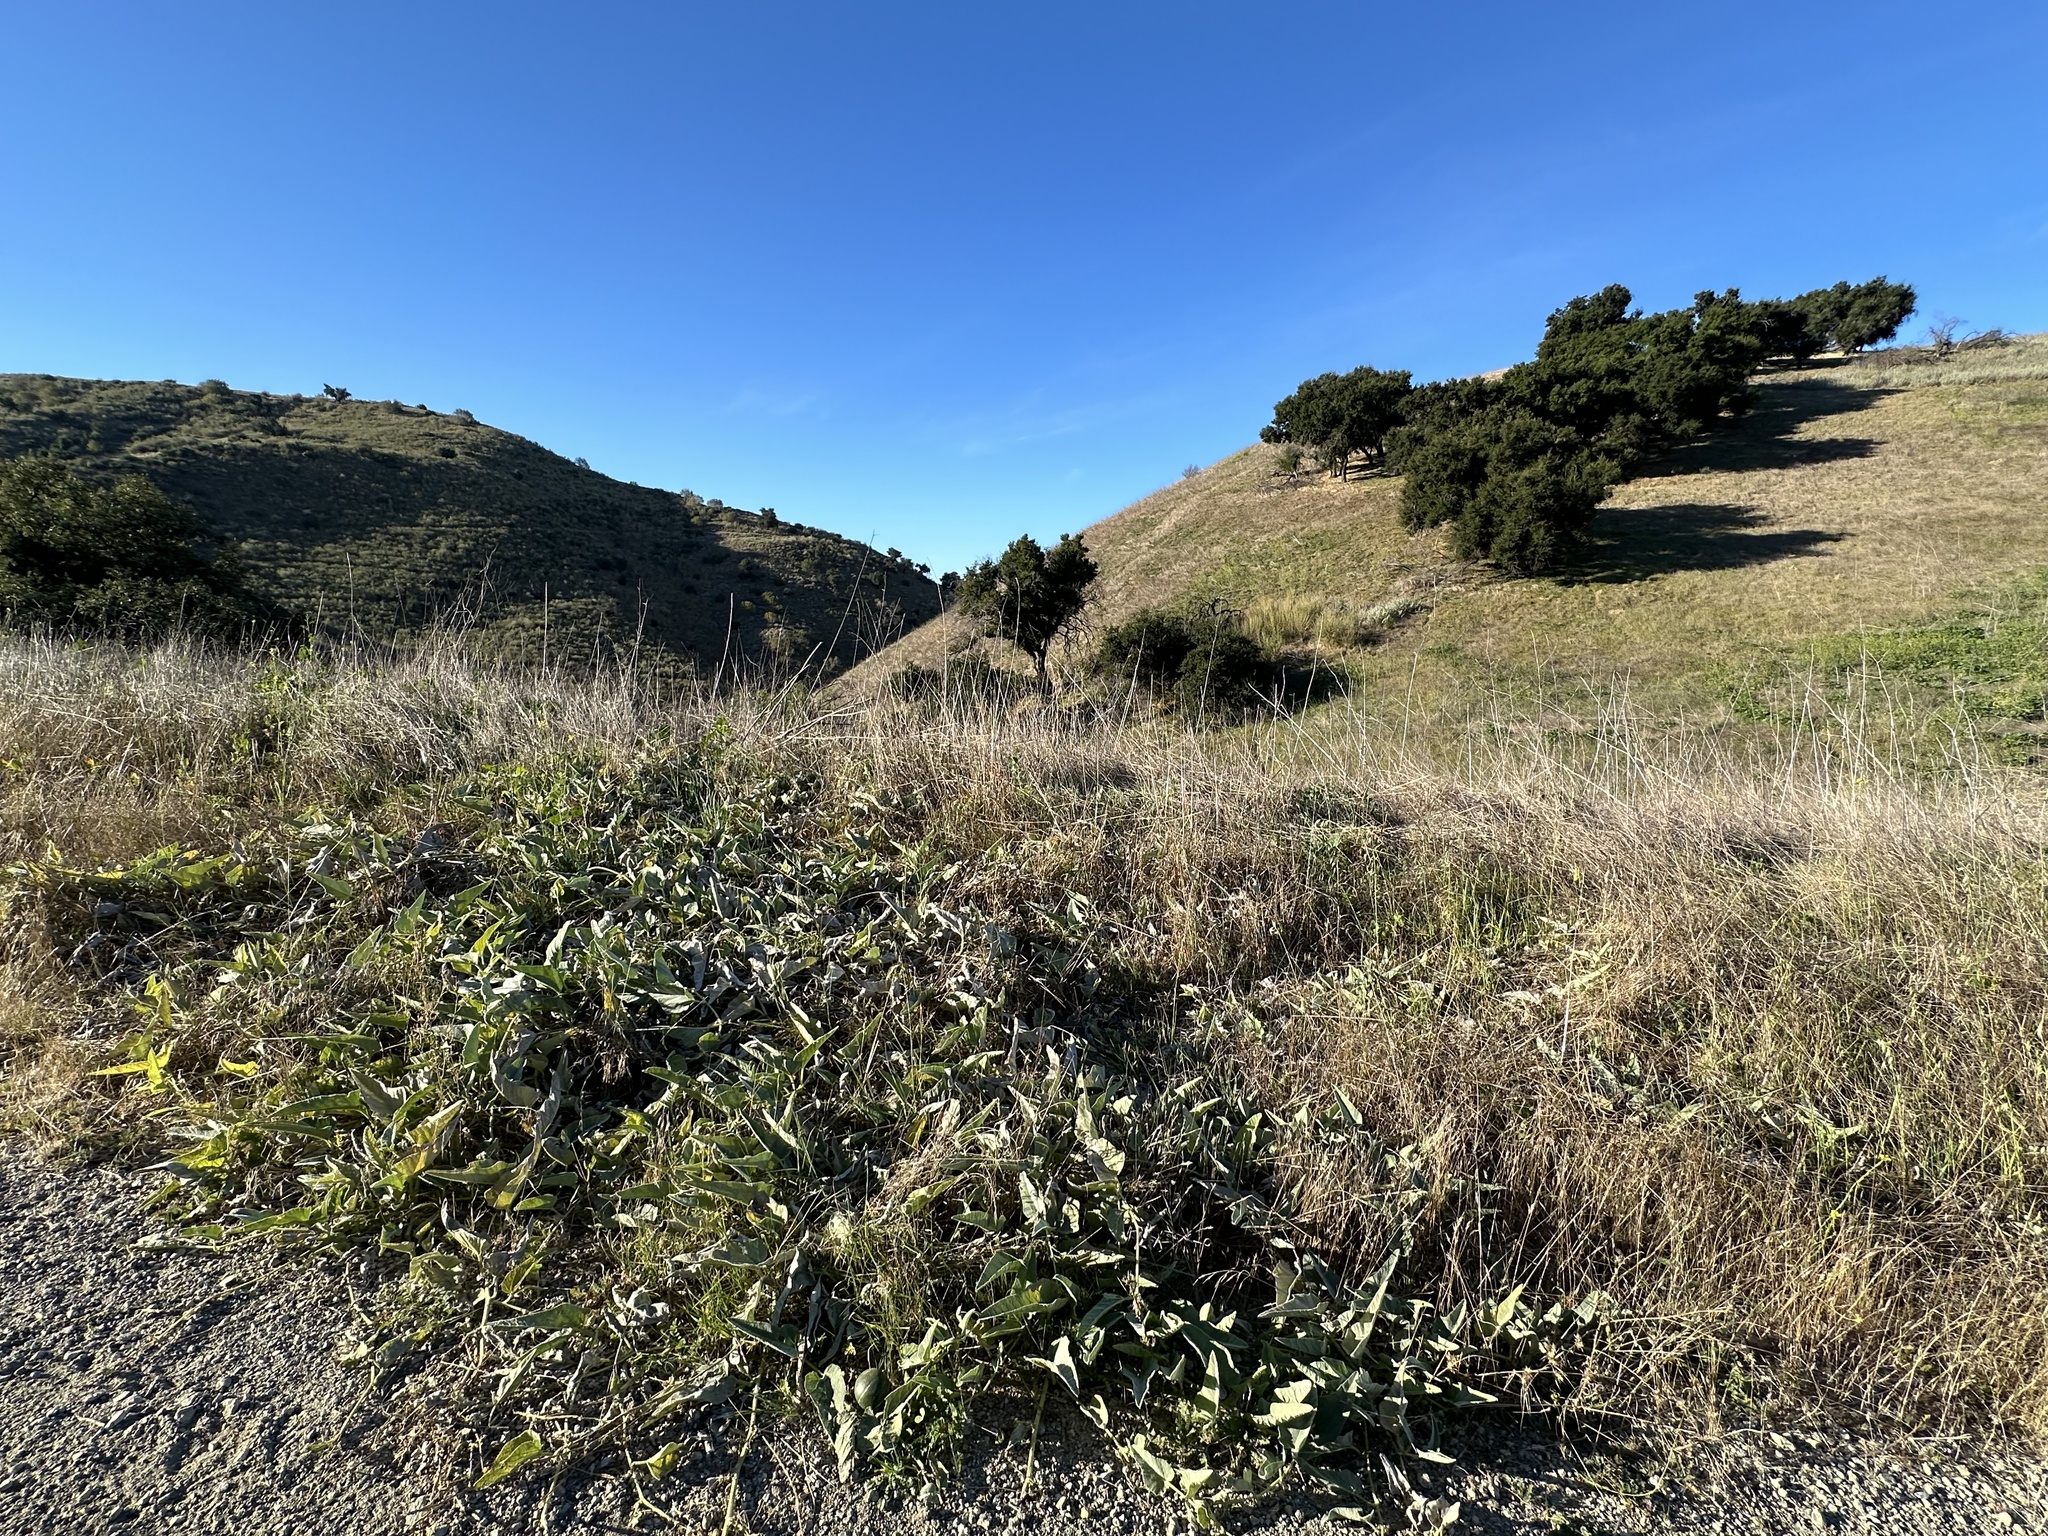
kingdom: Plantae
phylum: Tracheophyta
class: Magnoliopsida
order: Cucurbitales
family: Cucurbitaceae
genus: Cucurbita
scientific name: Cucurbita foetidissima
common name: Buffalo gourd
